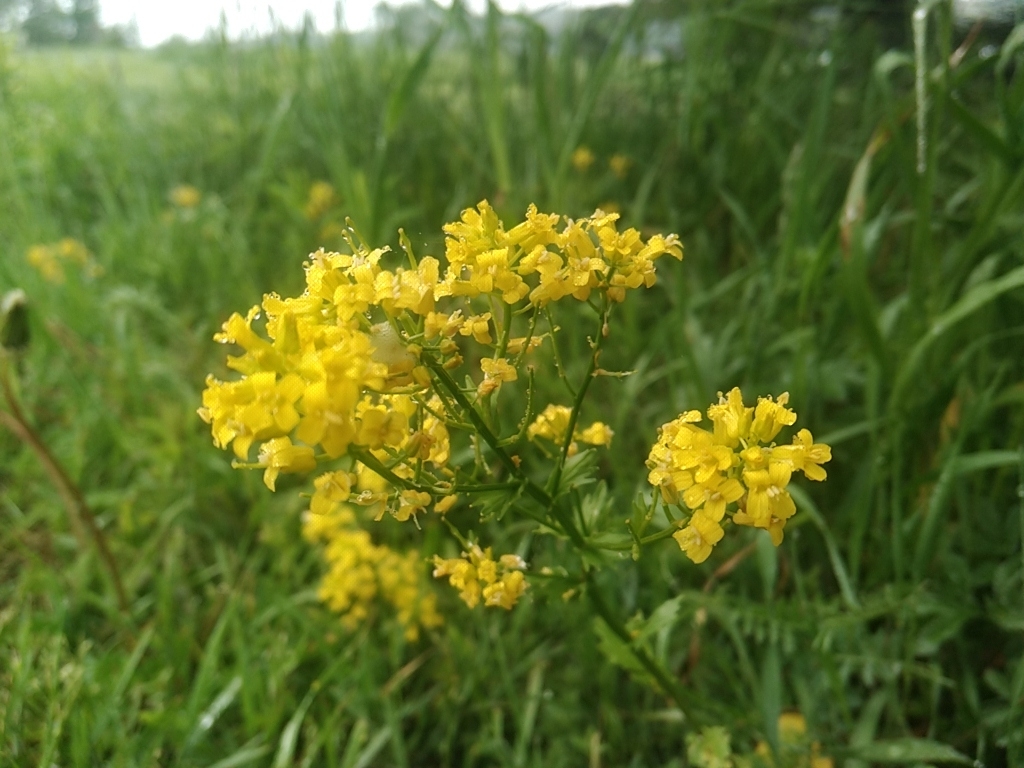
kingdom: Plantae
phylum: Tracheophyta
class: Magnoliopsida
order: Brassicales
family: Brassicaceae
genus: Barbarea
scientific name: Barbarea vulgaris
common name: Cressy-greens
